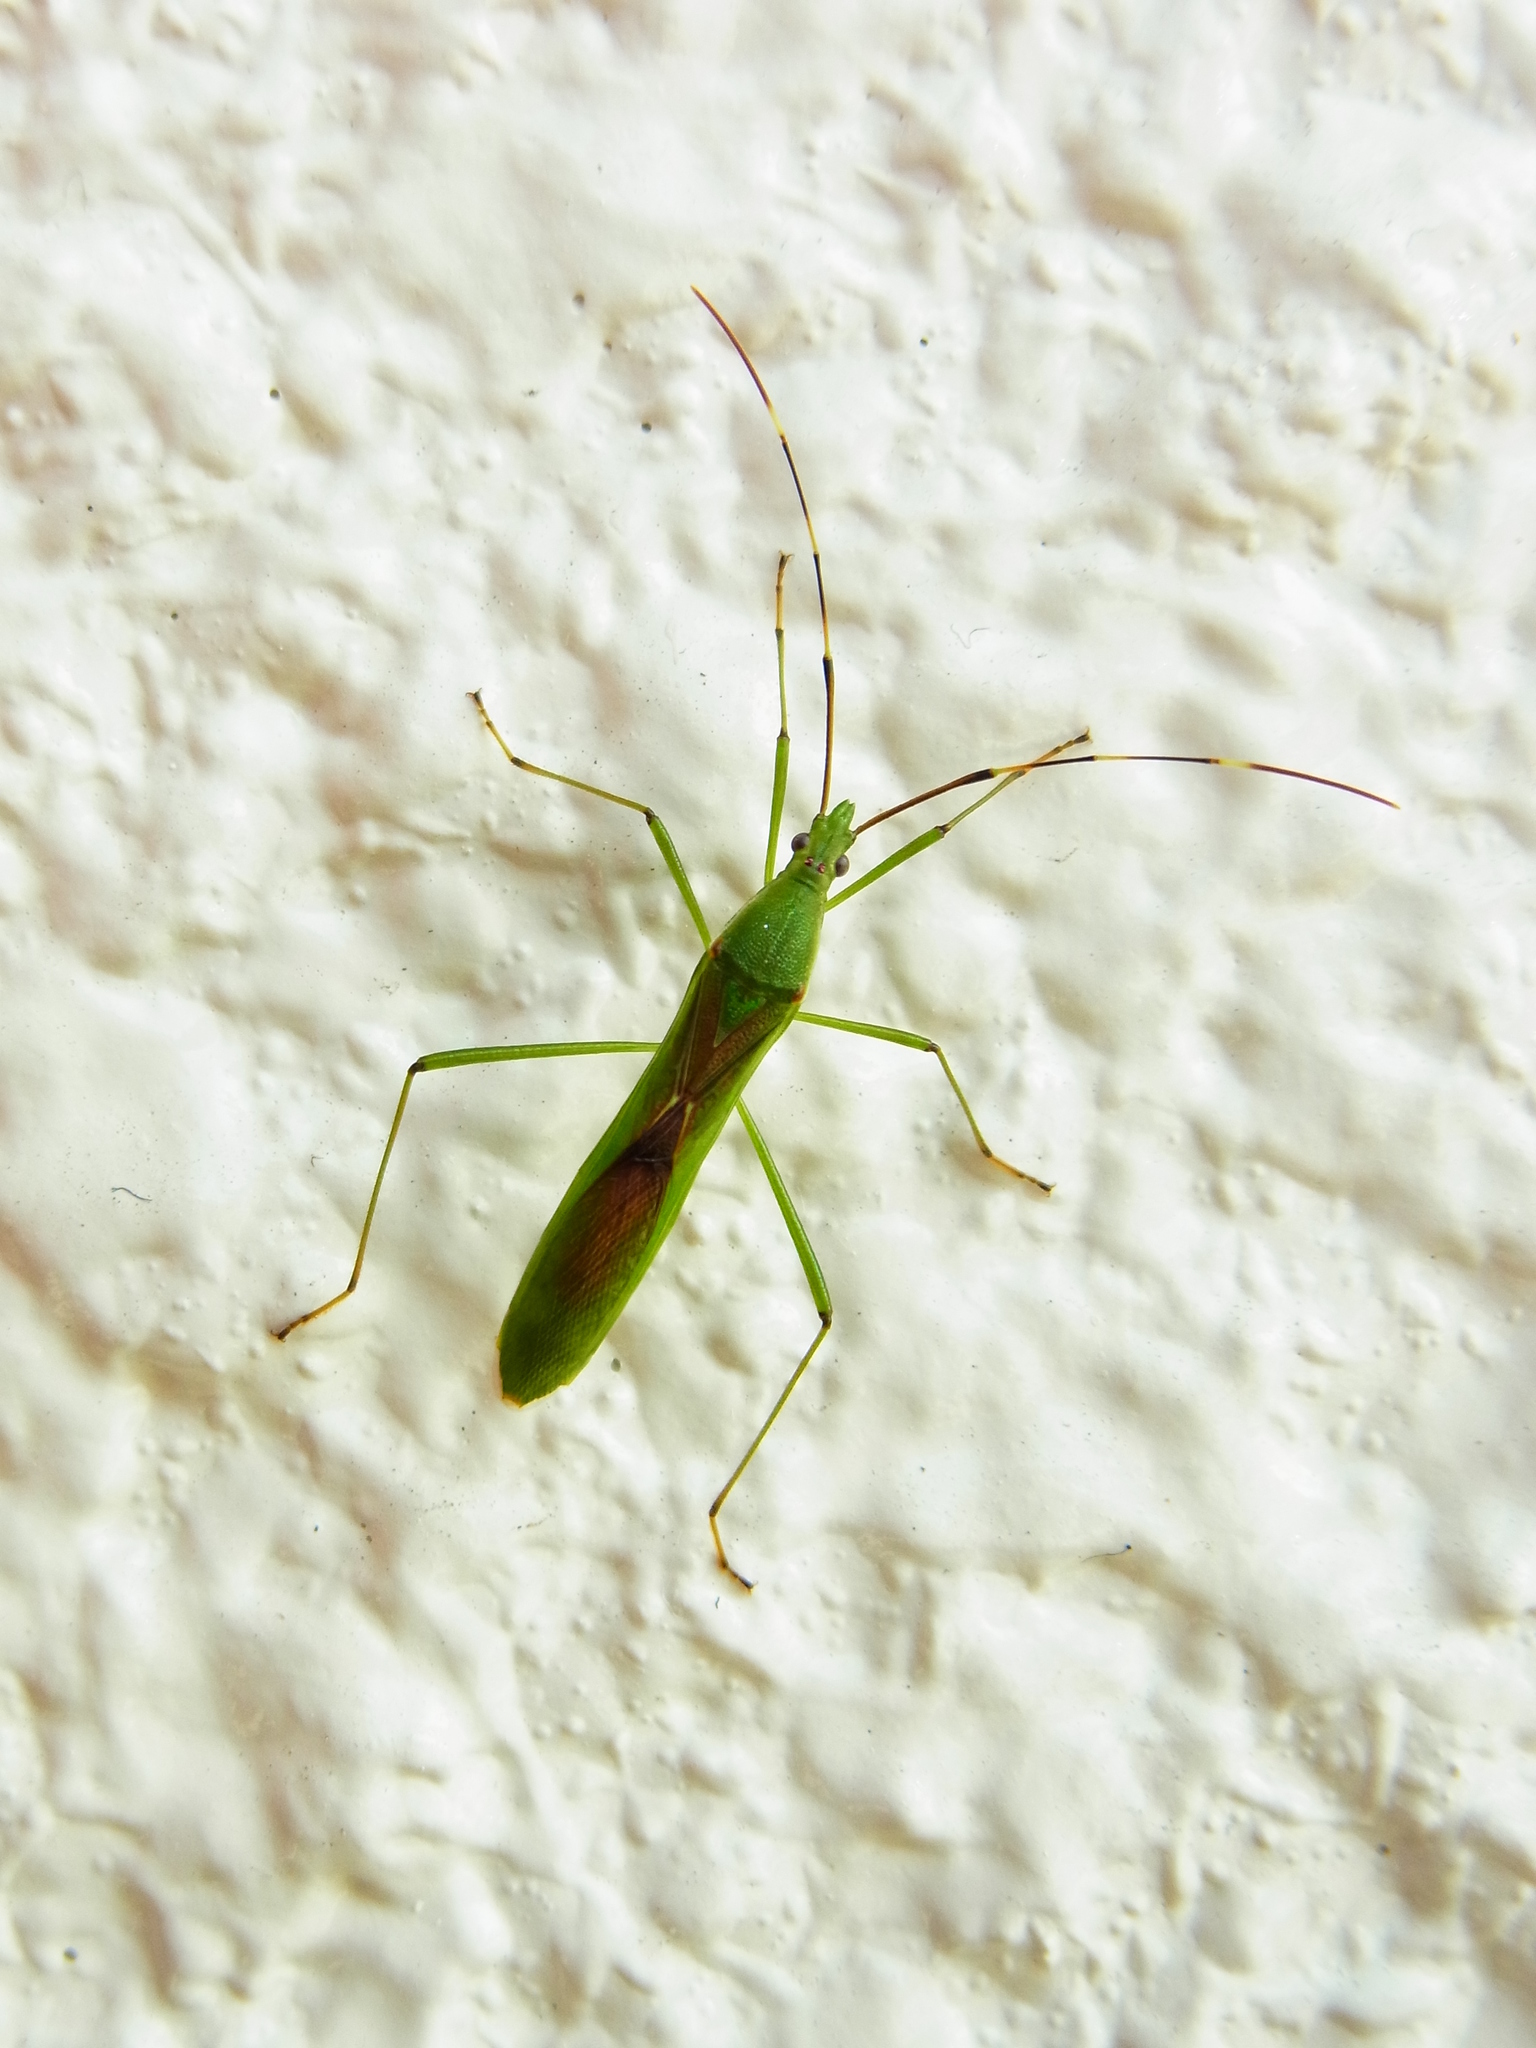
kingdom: Animalia
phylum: Arthropoda
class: Insecta
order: Hemiptera
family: Alydidae
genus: Leptocorisa
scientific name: Leptocorisa chinensis
